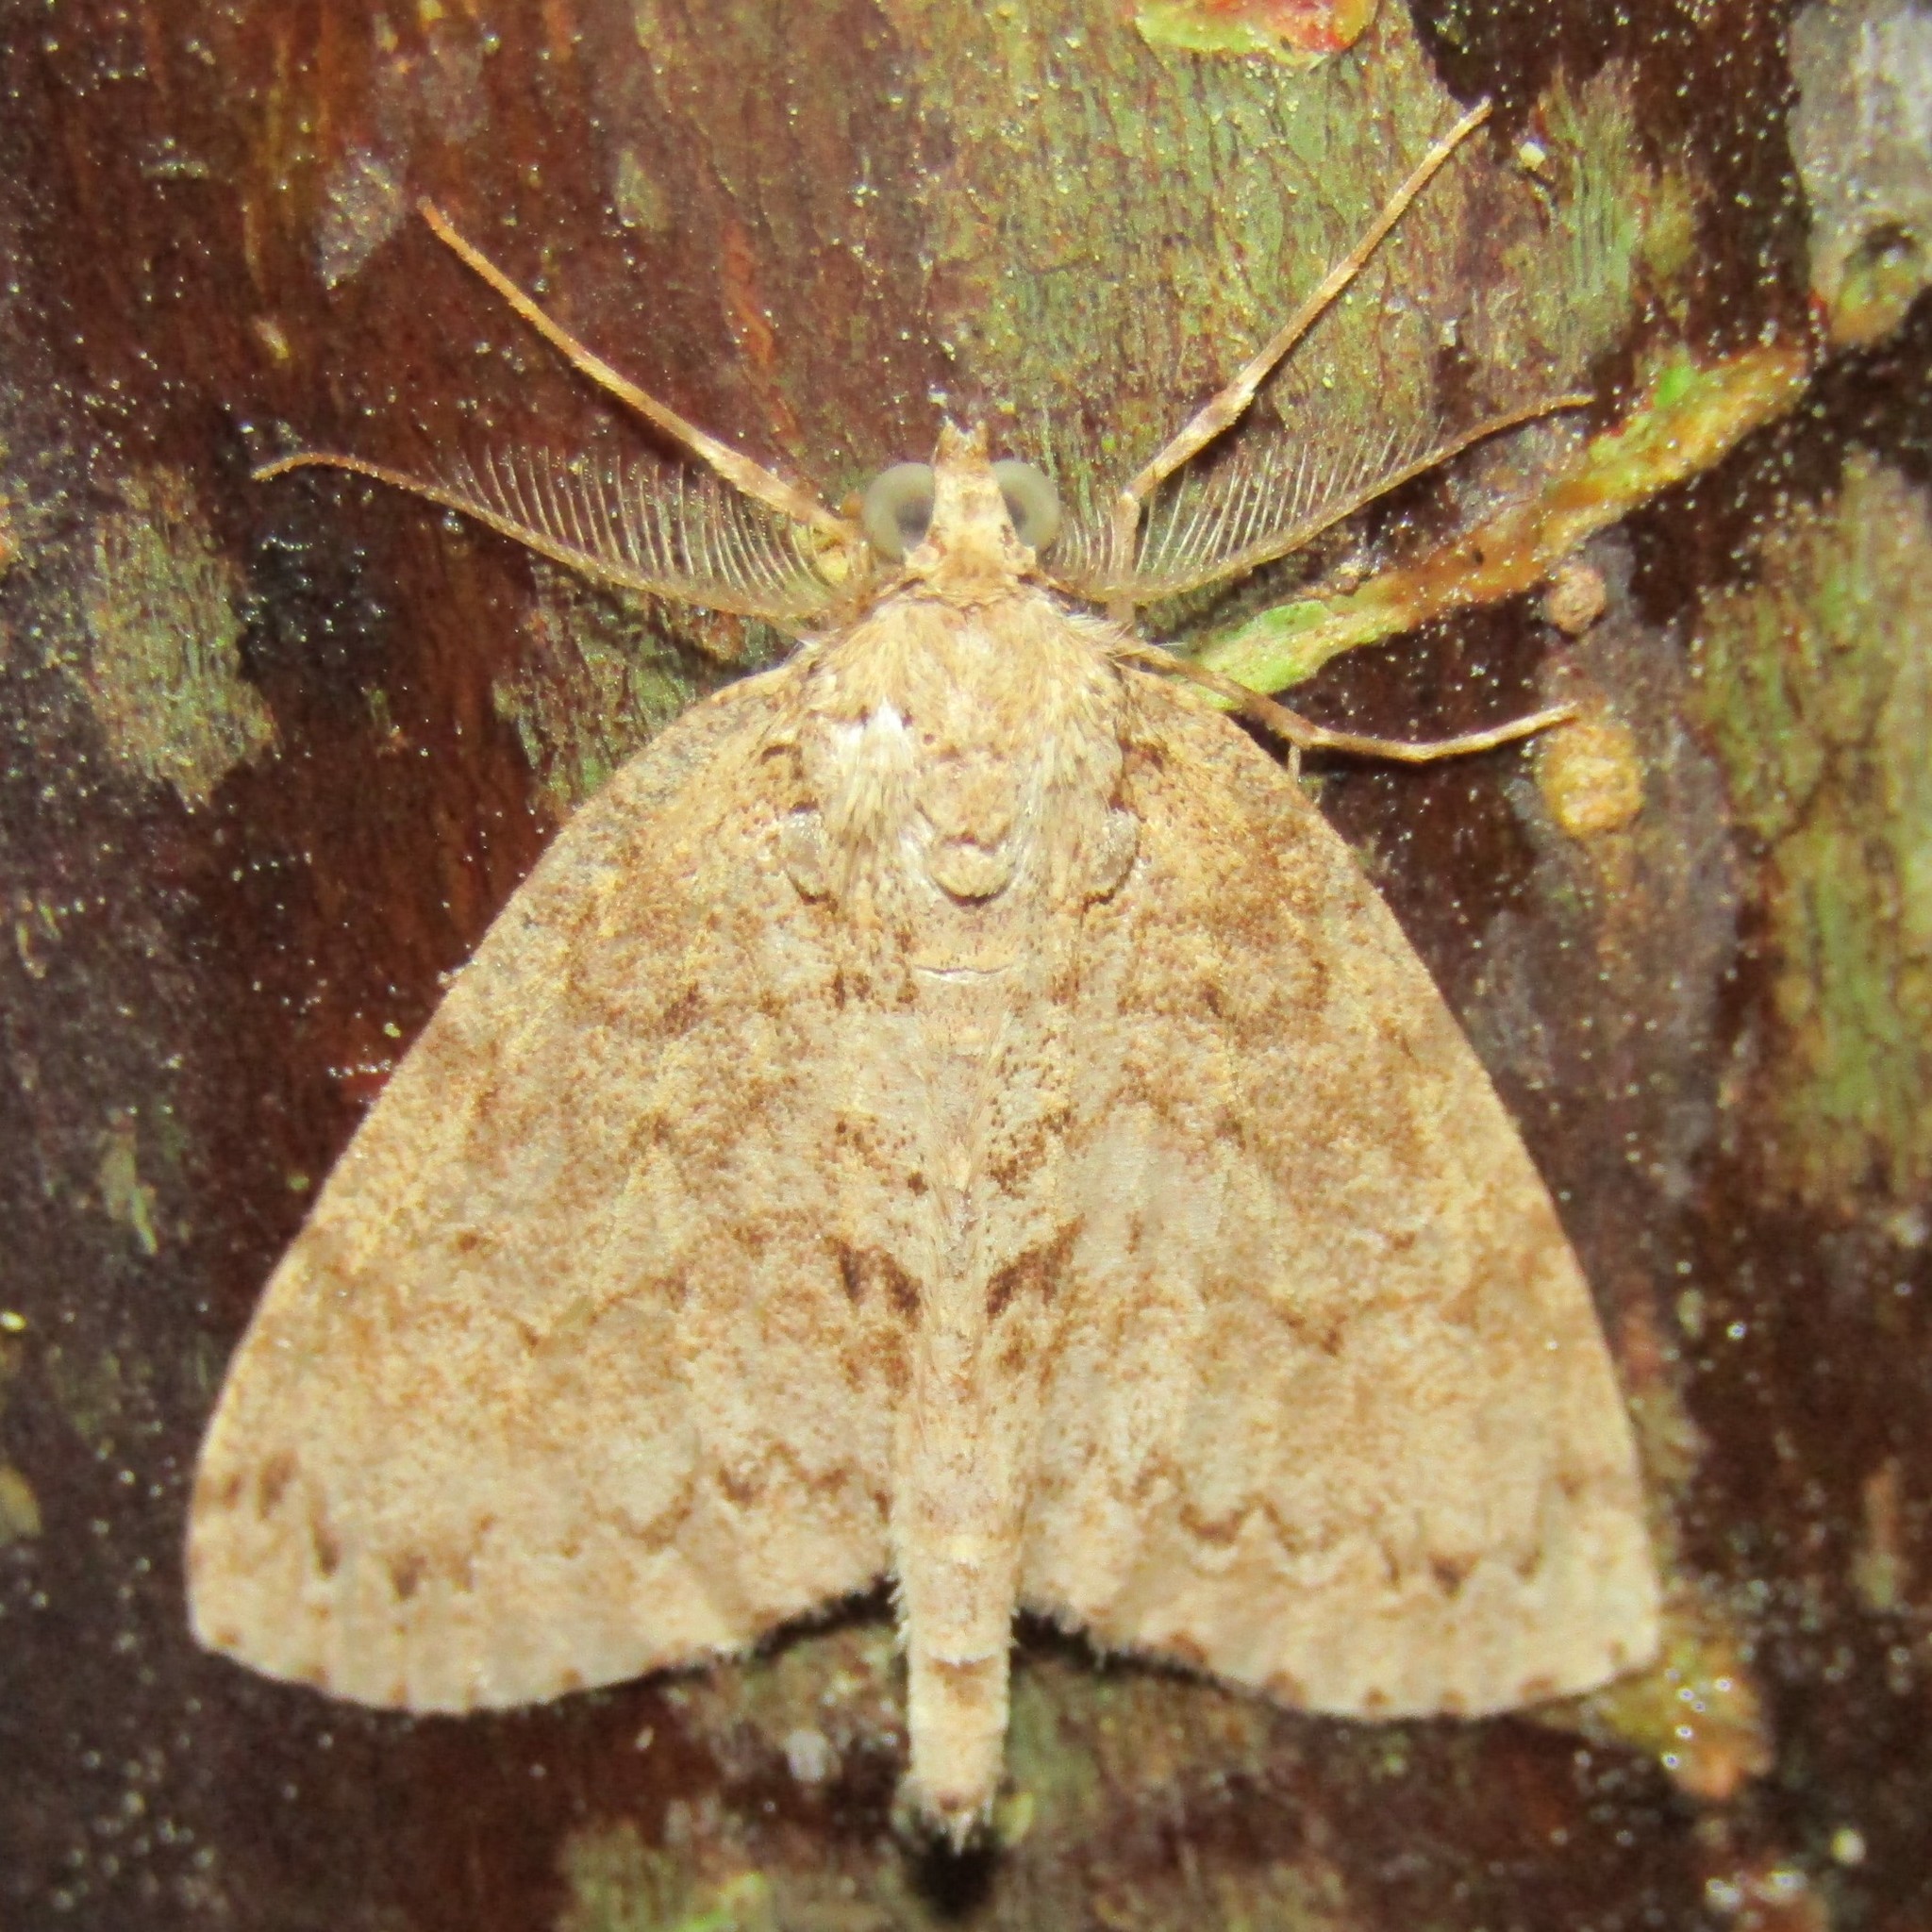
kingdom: Animalia
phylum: Arthropoda
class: Insecta
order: Lepidoptera
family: Geometridae
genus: Pseudocoremia
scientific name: Pseudocoremia fenerata
